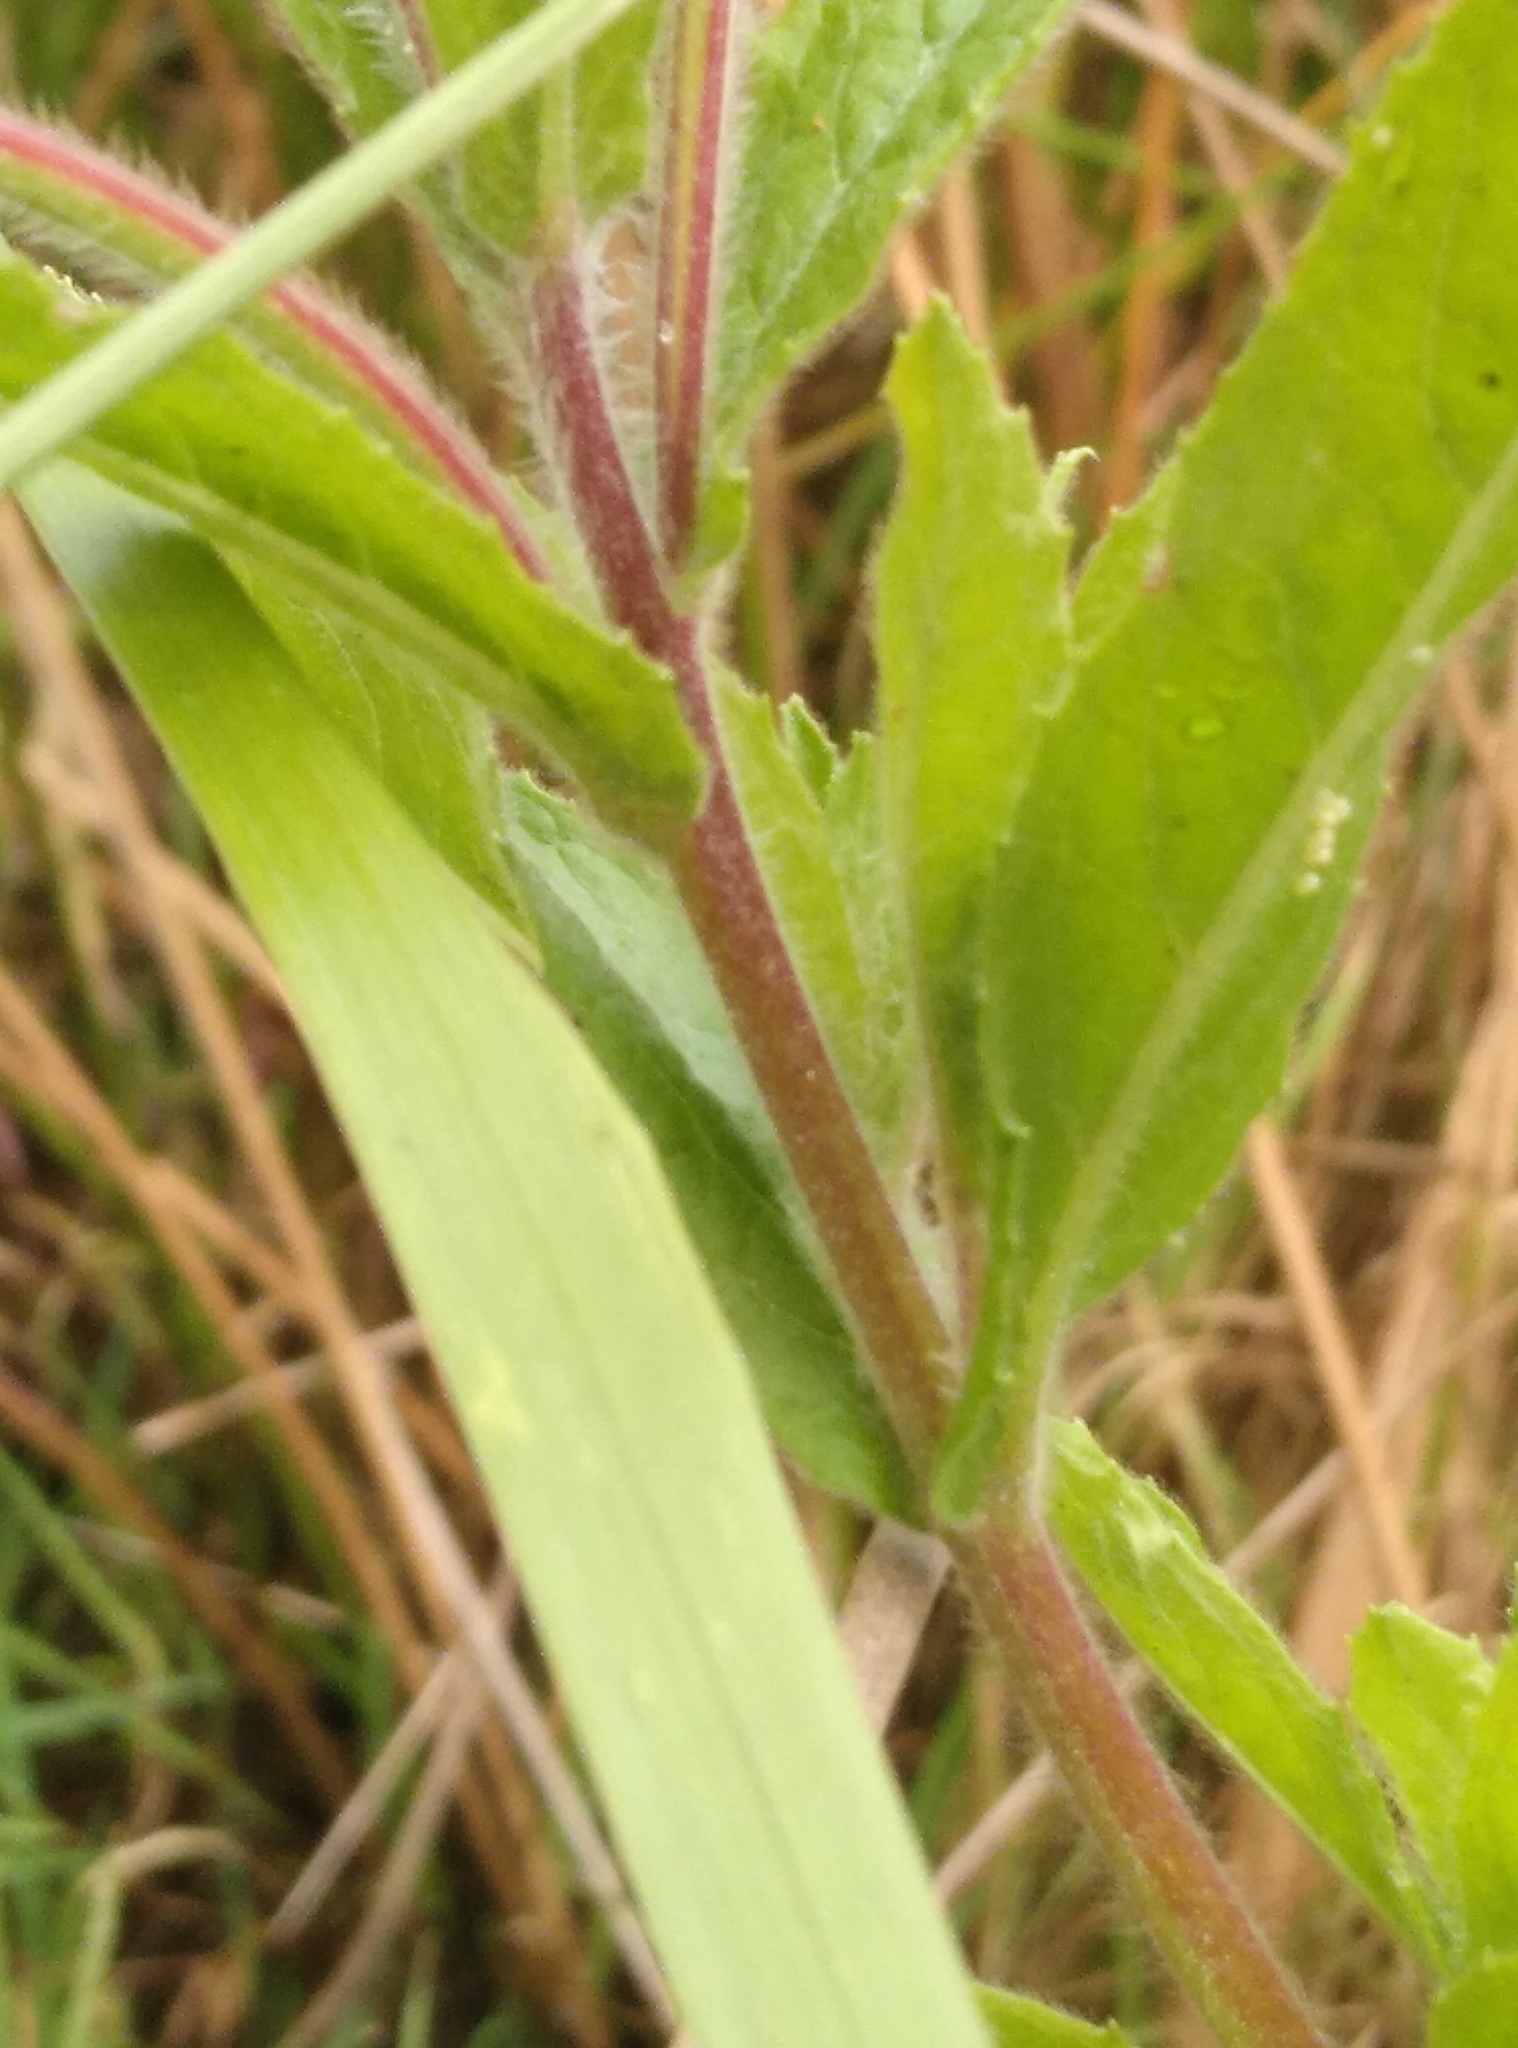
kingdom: Plantae
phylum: Tracheophyta
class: Magnoliopsida
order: Myrtales
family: Onagraceae
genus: Epilobium
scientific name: Epilobium hirsutum
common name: Great willowherb
